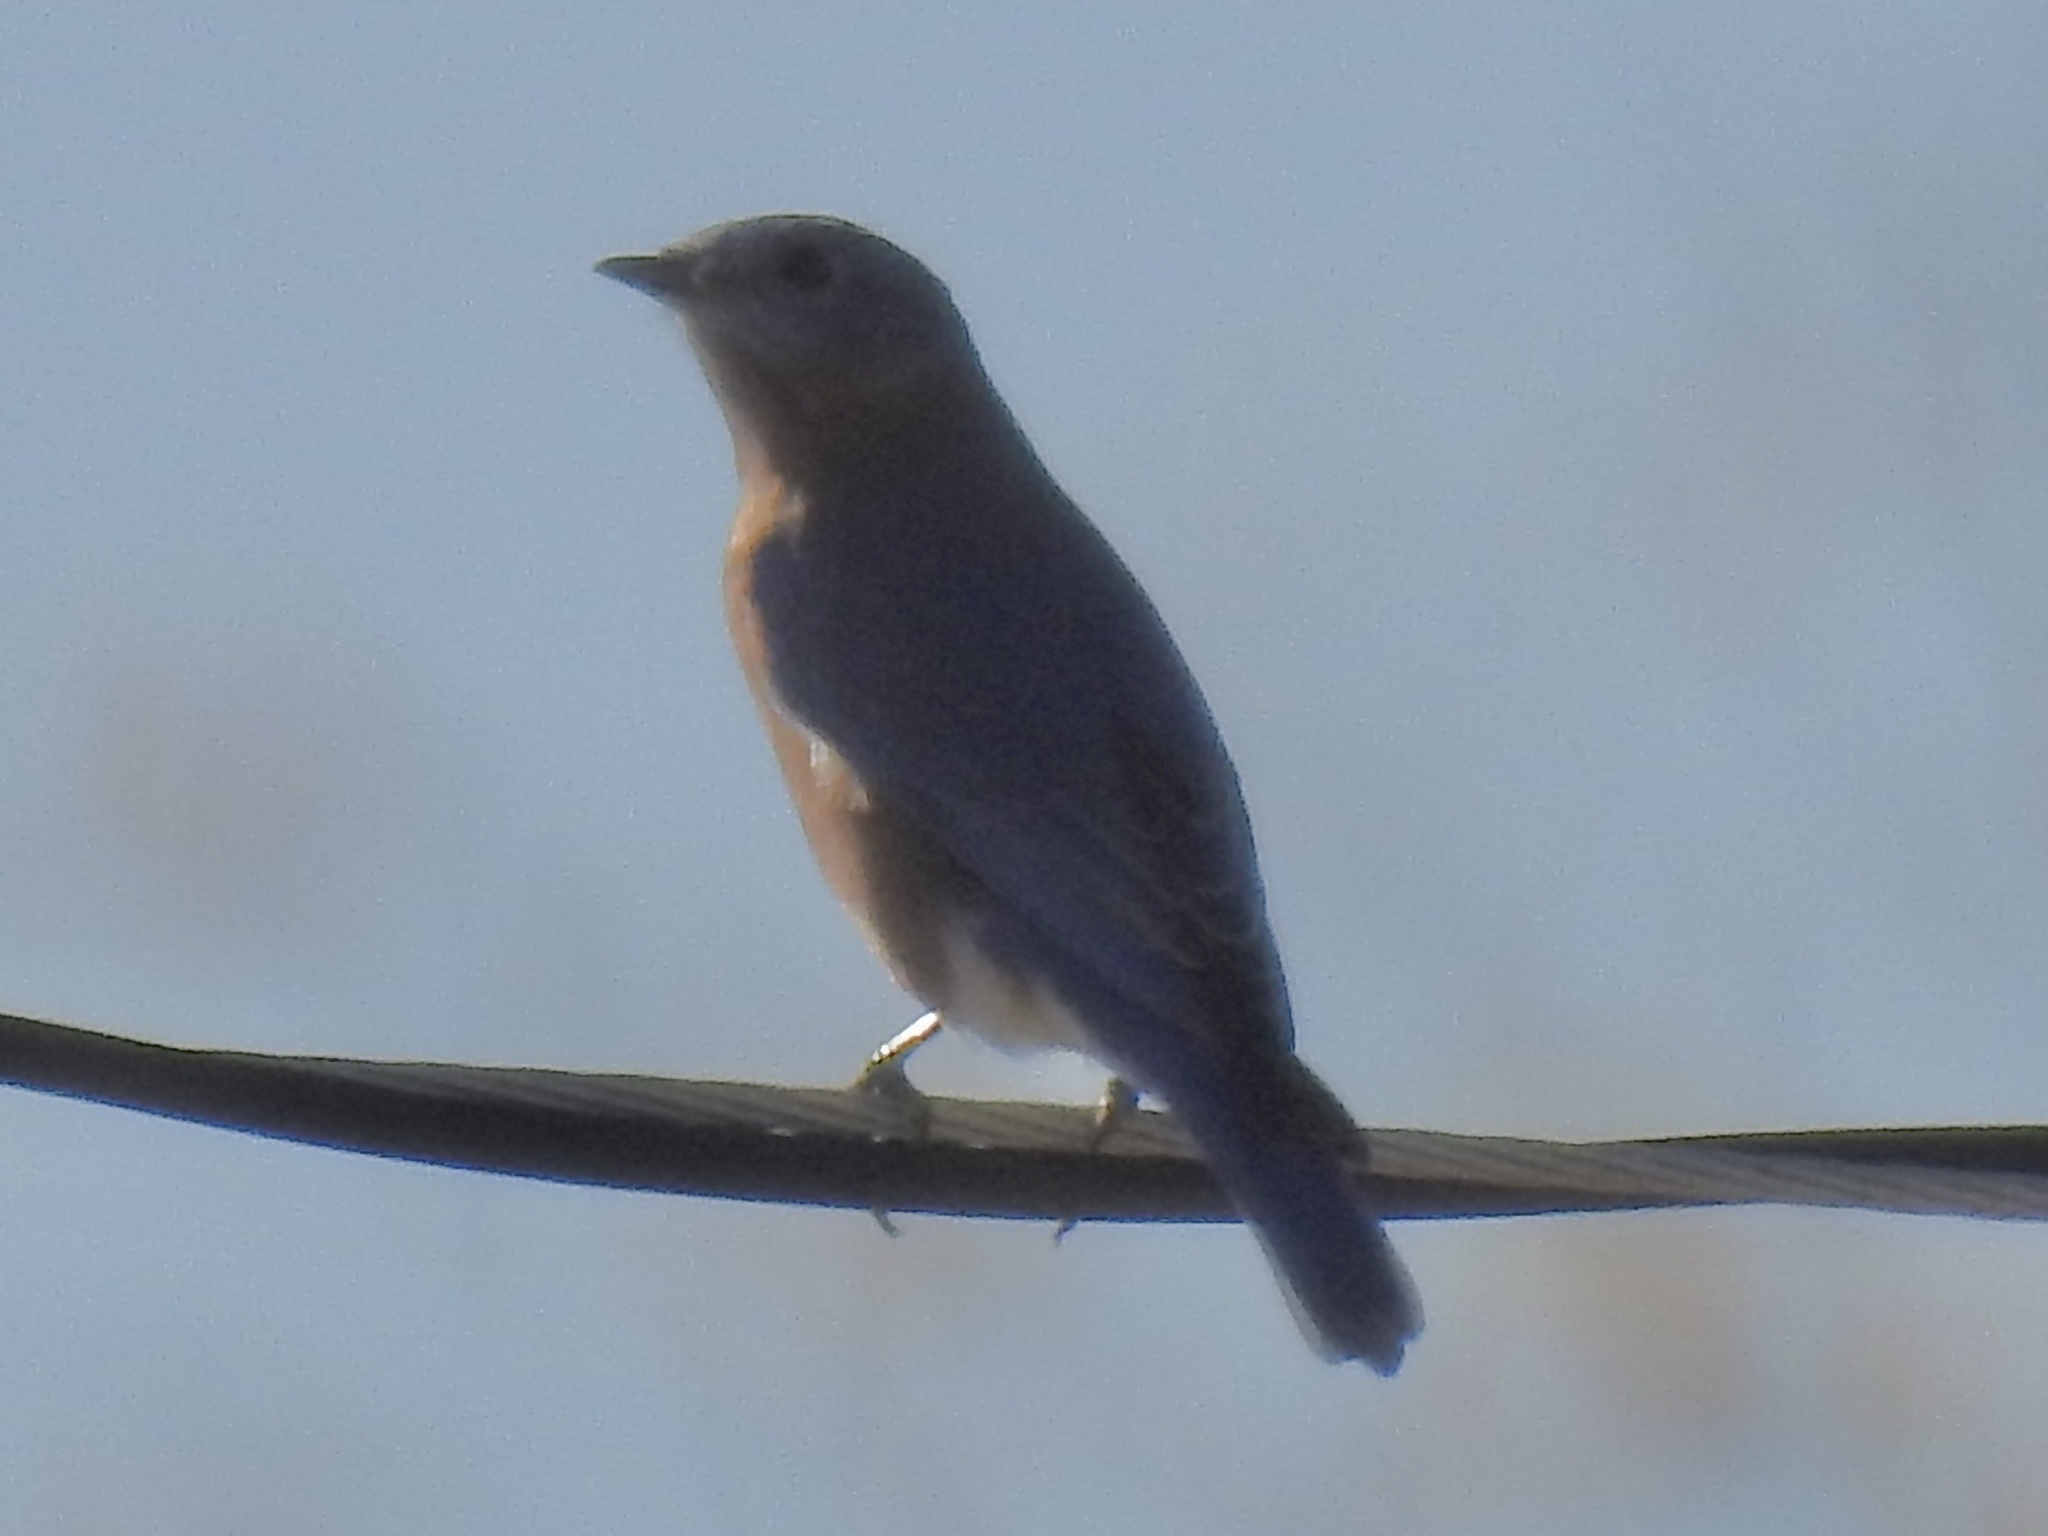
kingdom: Animalia
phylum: Chordata
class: Aves
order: Passeriformes
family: Turdidae
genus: Sialia
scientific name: Sialia mexicana
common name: Western bluebird
